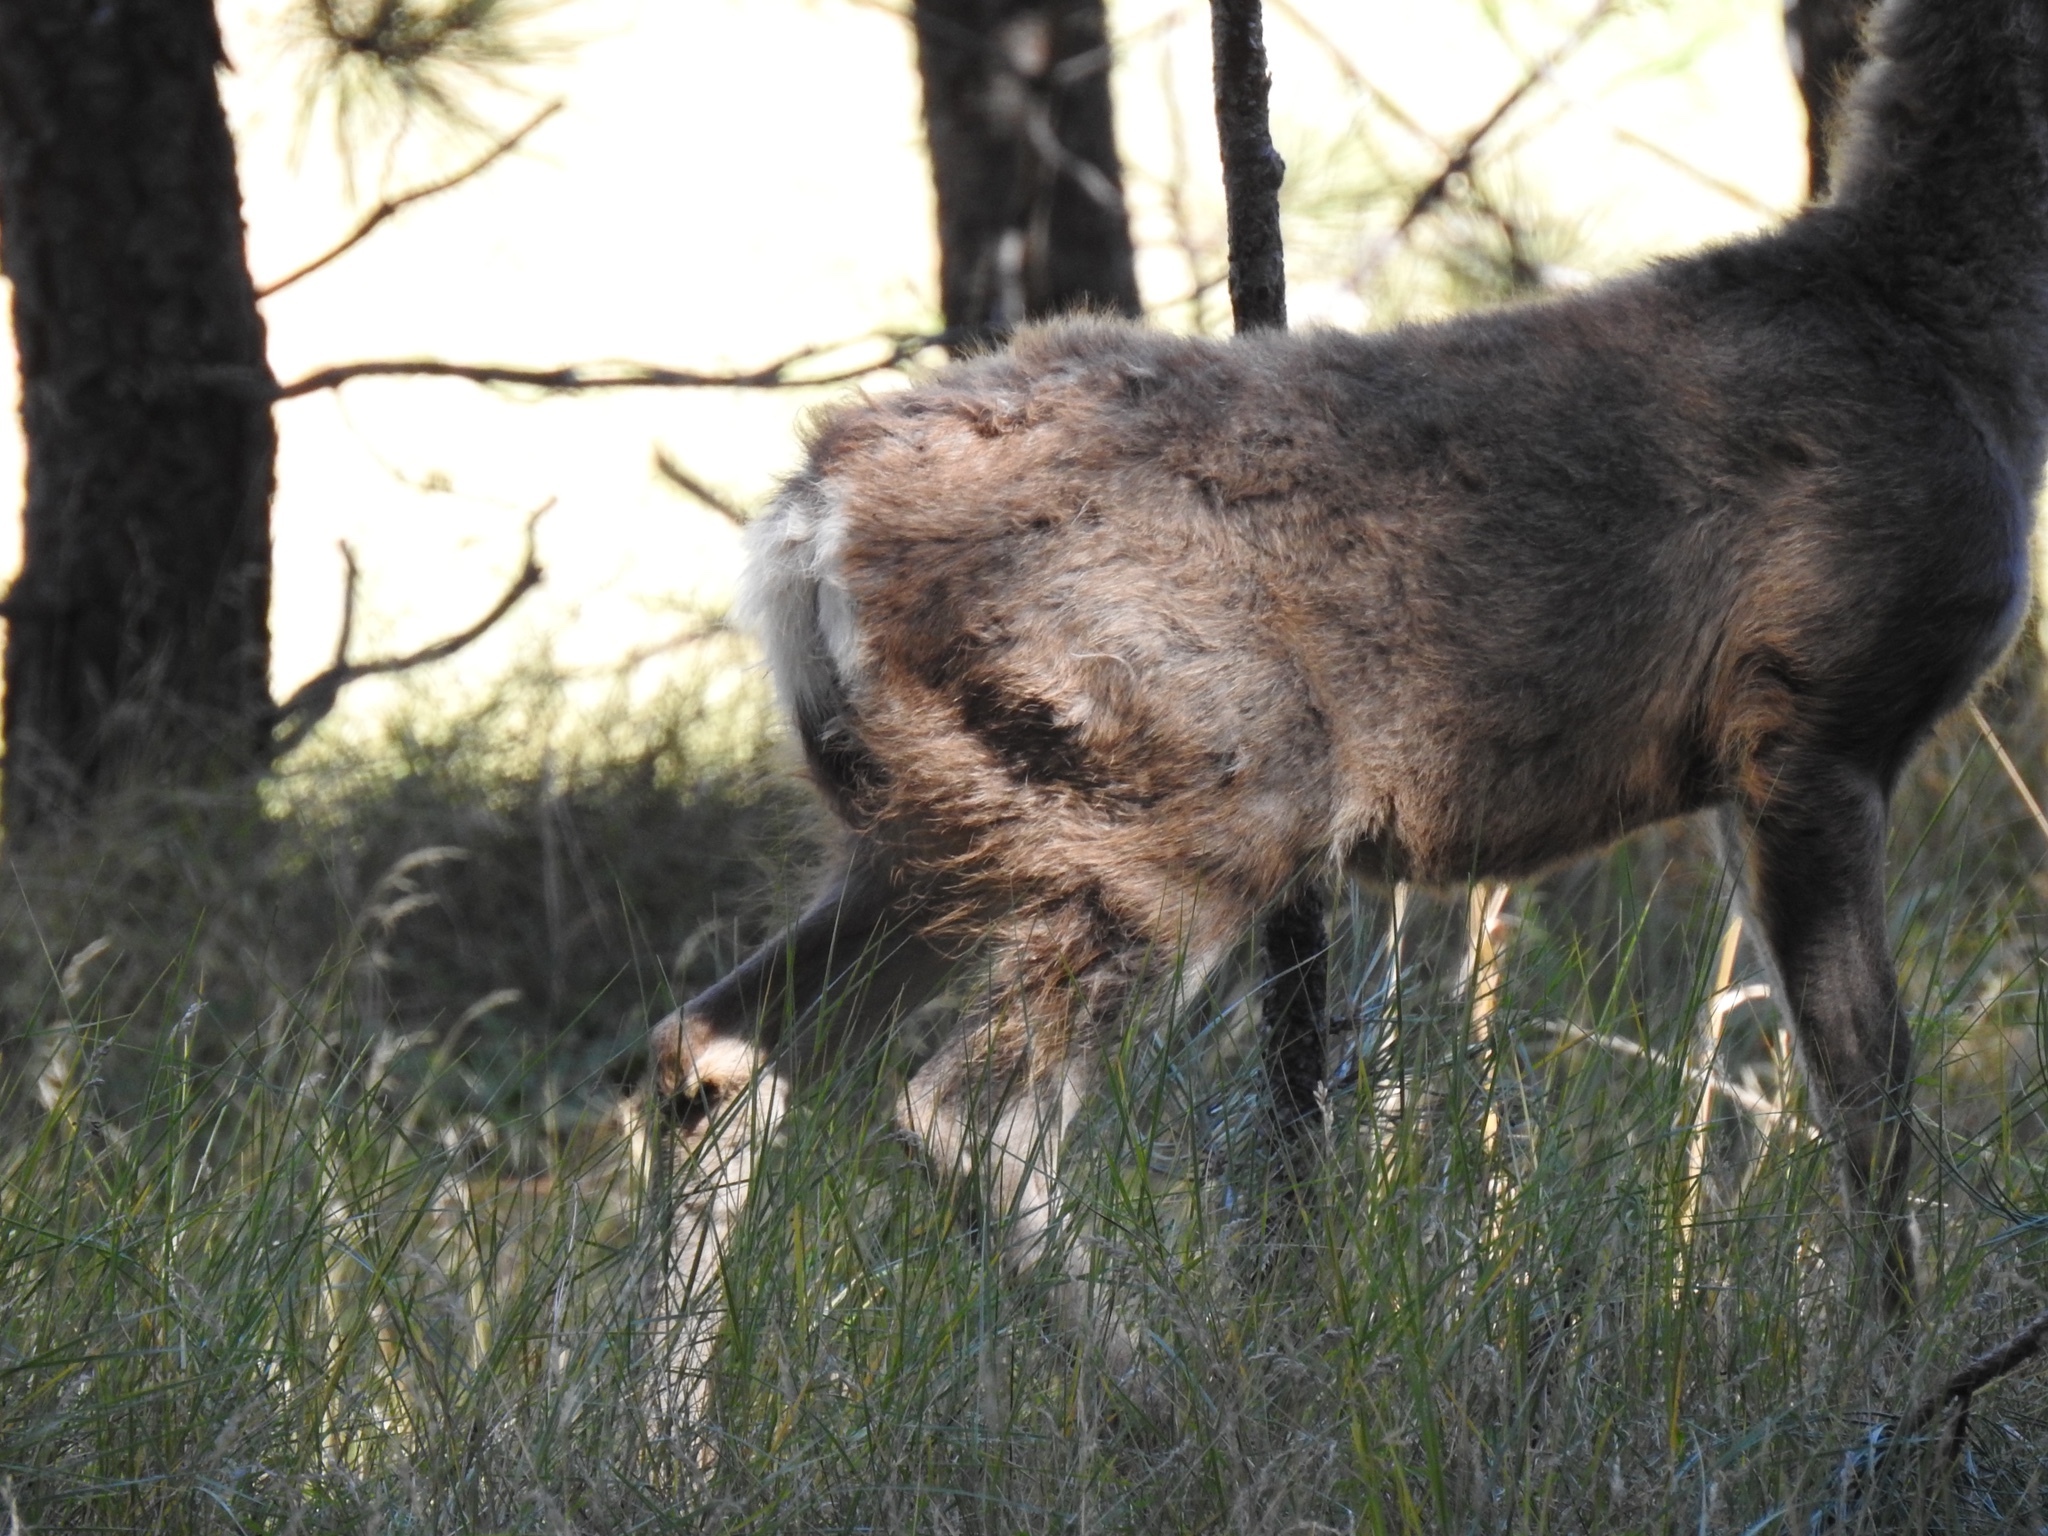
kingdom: Animalia
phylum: Chordata
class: Mammalia
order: Artiodactyla
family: Cervidae
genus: Odocoileus
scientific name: Odocoileus hemionus
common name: Mule deer
